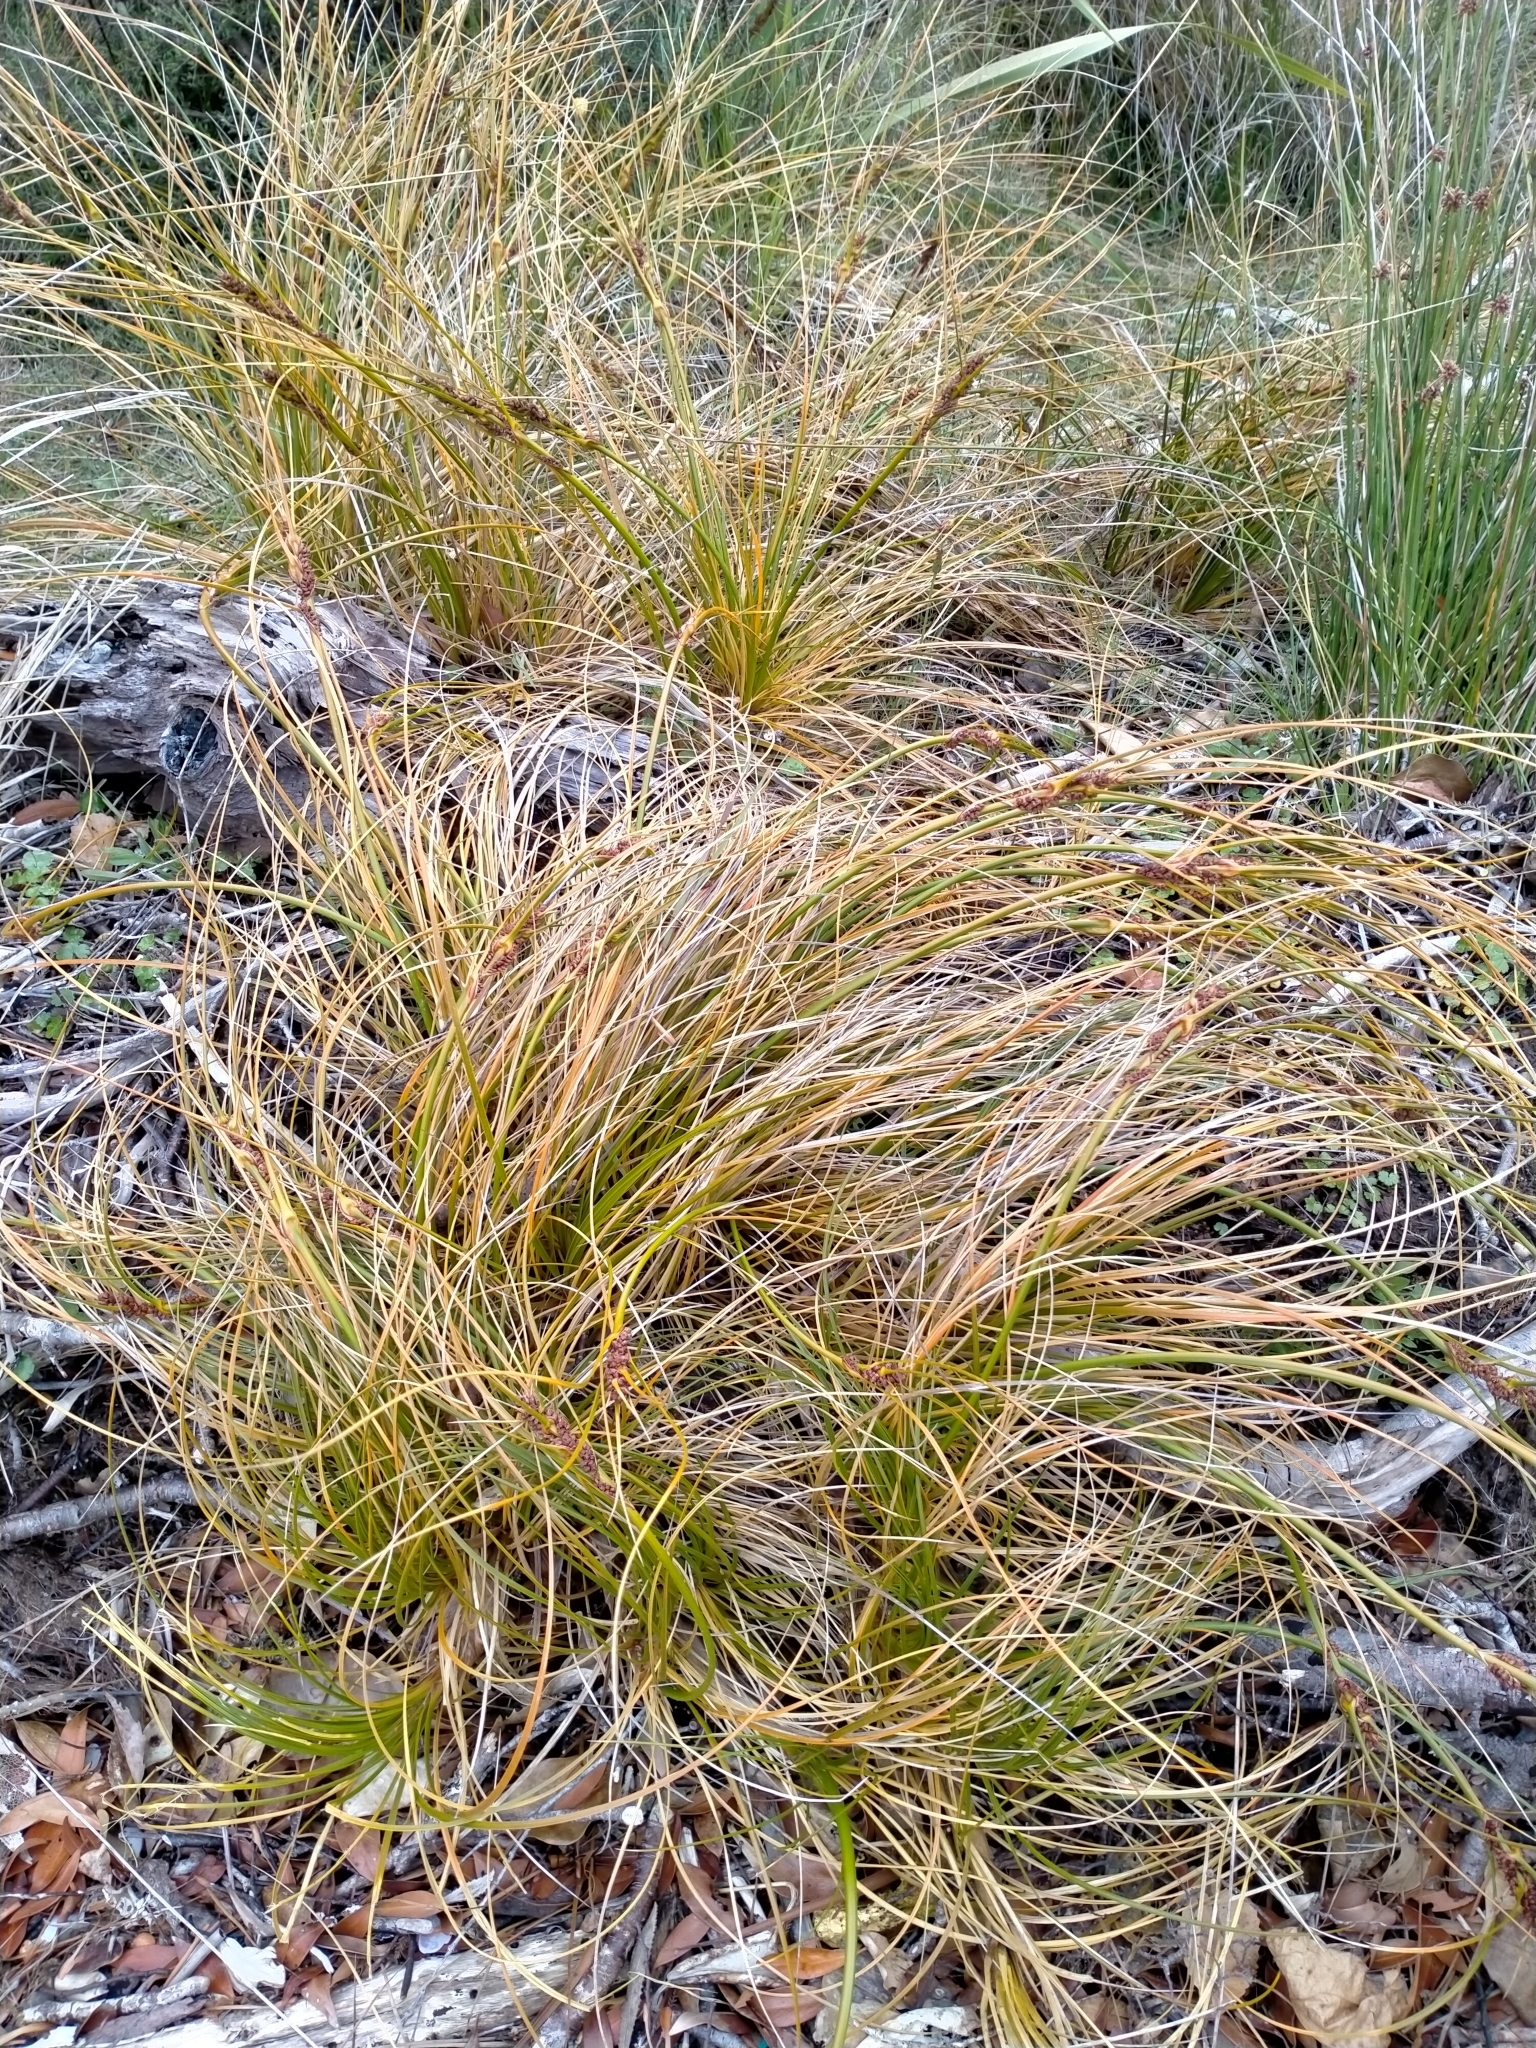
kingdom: Plantae
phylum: Tracheophyta
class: Liliopsida
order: Poales
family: Cyperaceae
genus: Ficinia
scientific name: Ficinia spiralis
